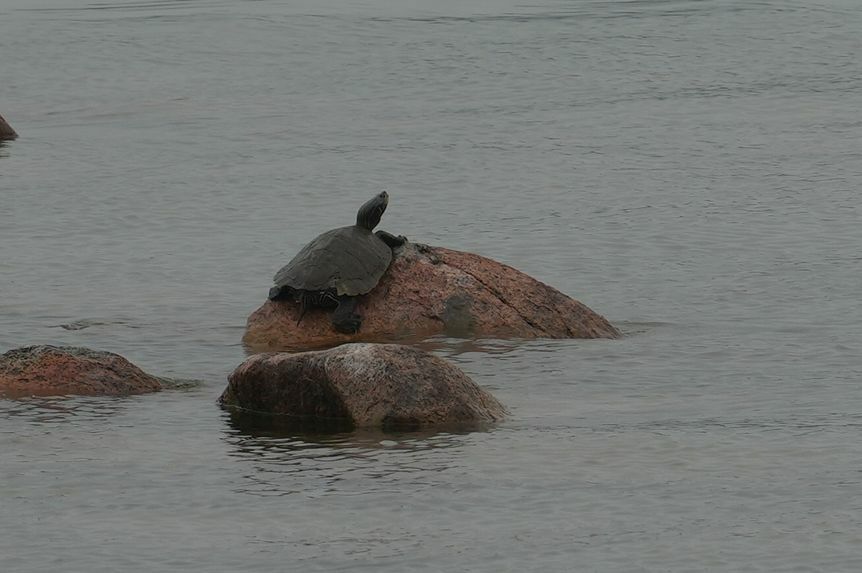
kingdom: Animalia
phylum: Chordata
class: Testudines
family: Emydidae
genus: Graptemys
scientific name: Graptemys geographica
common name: Common map turtle
